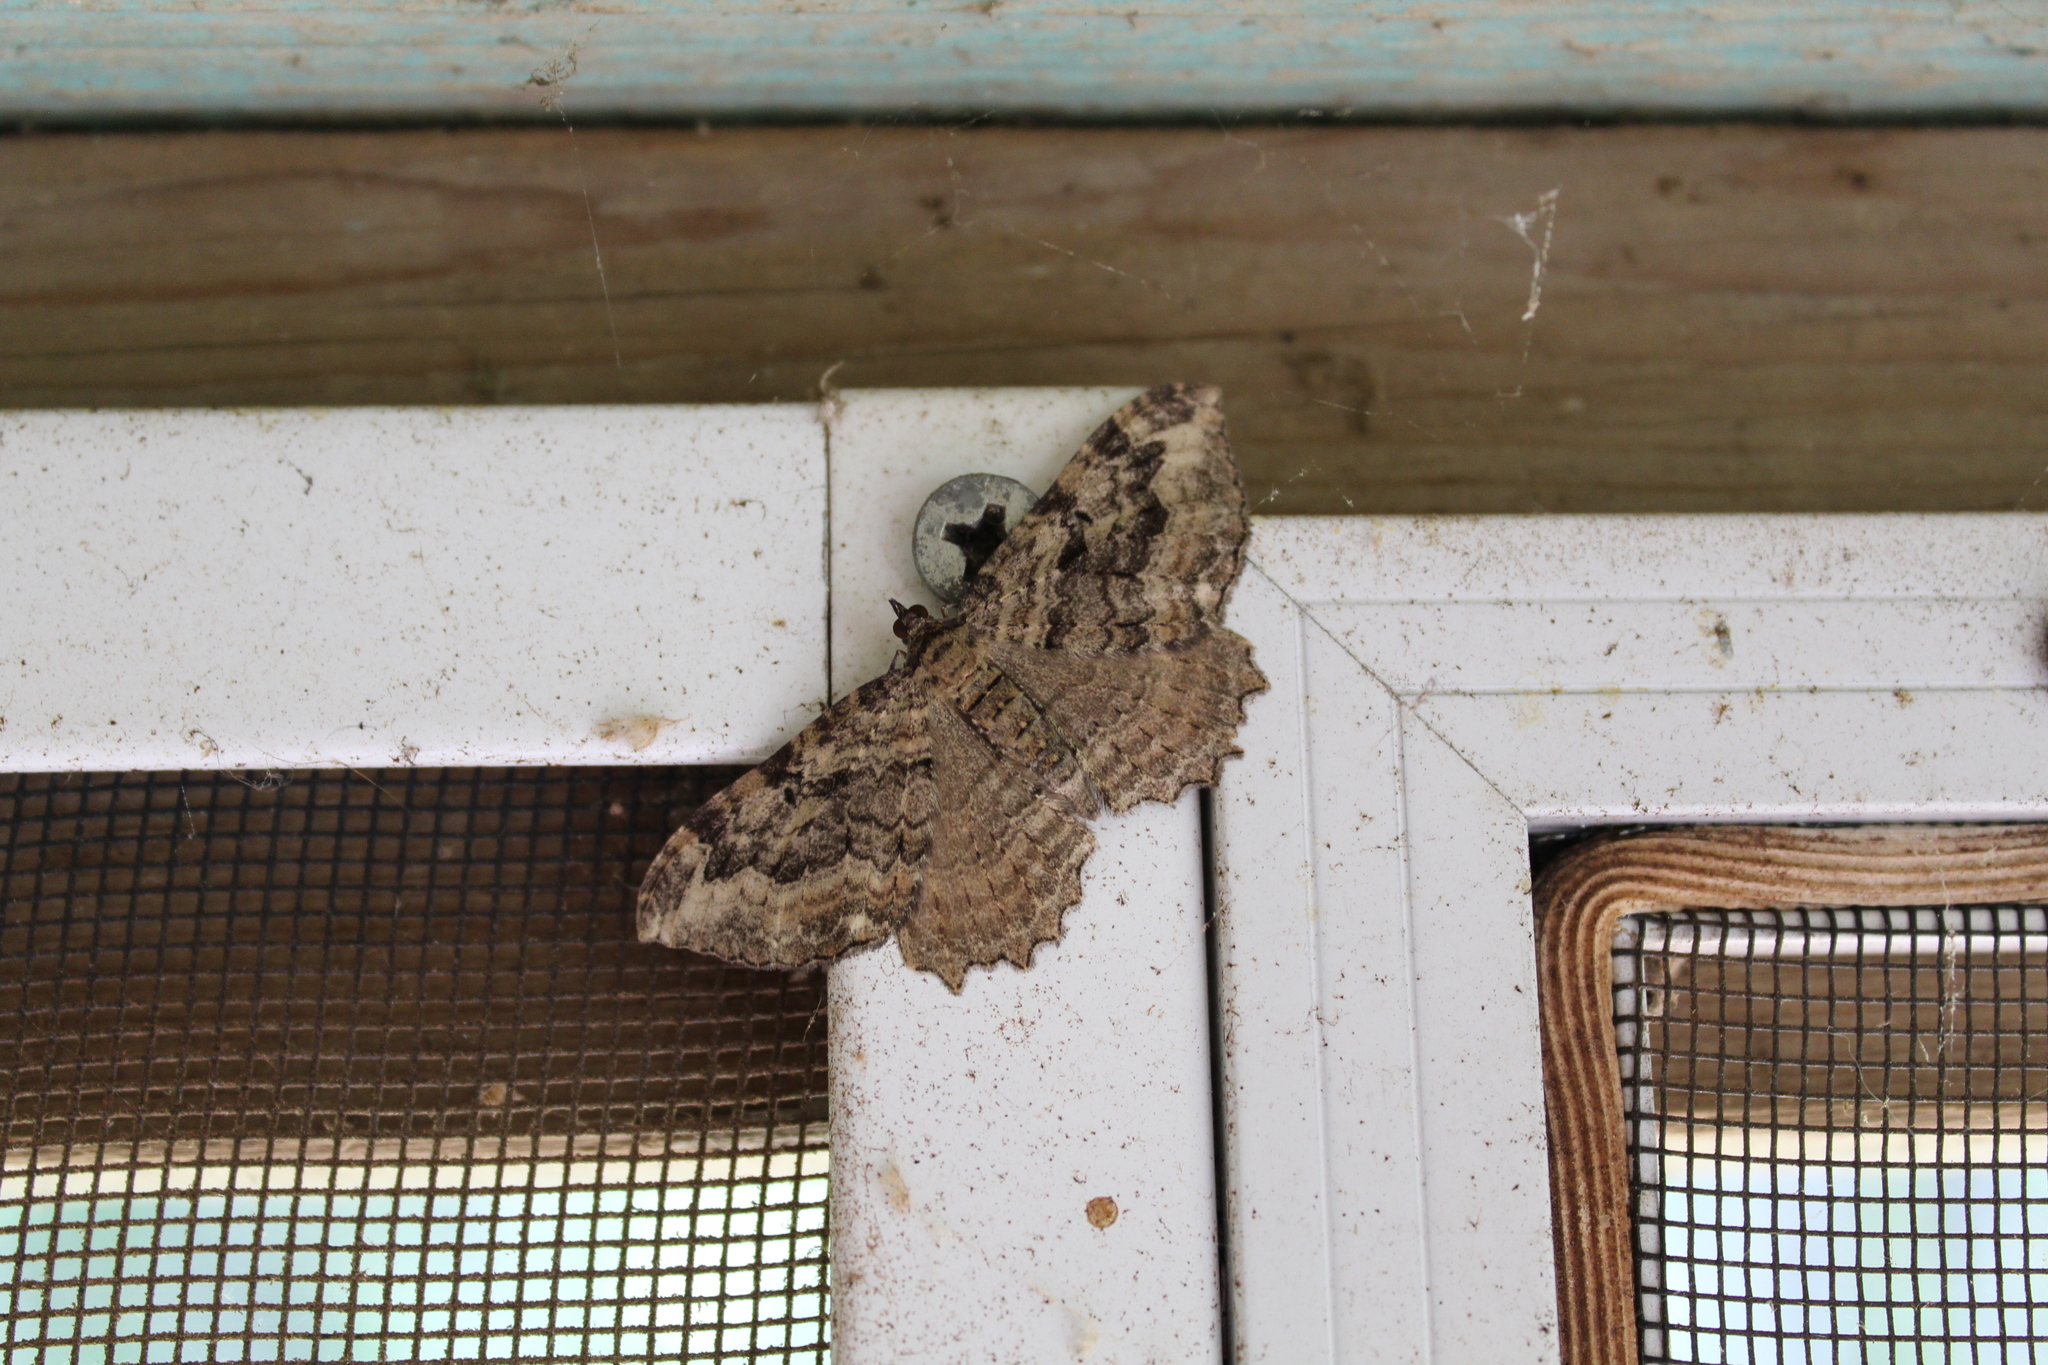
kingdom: Animalia
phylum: Arthropoda
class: Insecta
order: Lepidoptera
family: Geometridae
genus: Rheumaptera
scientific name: Rheumaptera
